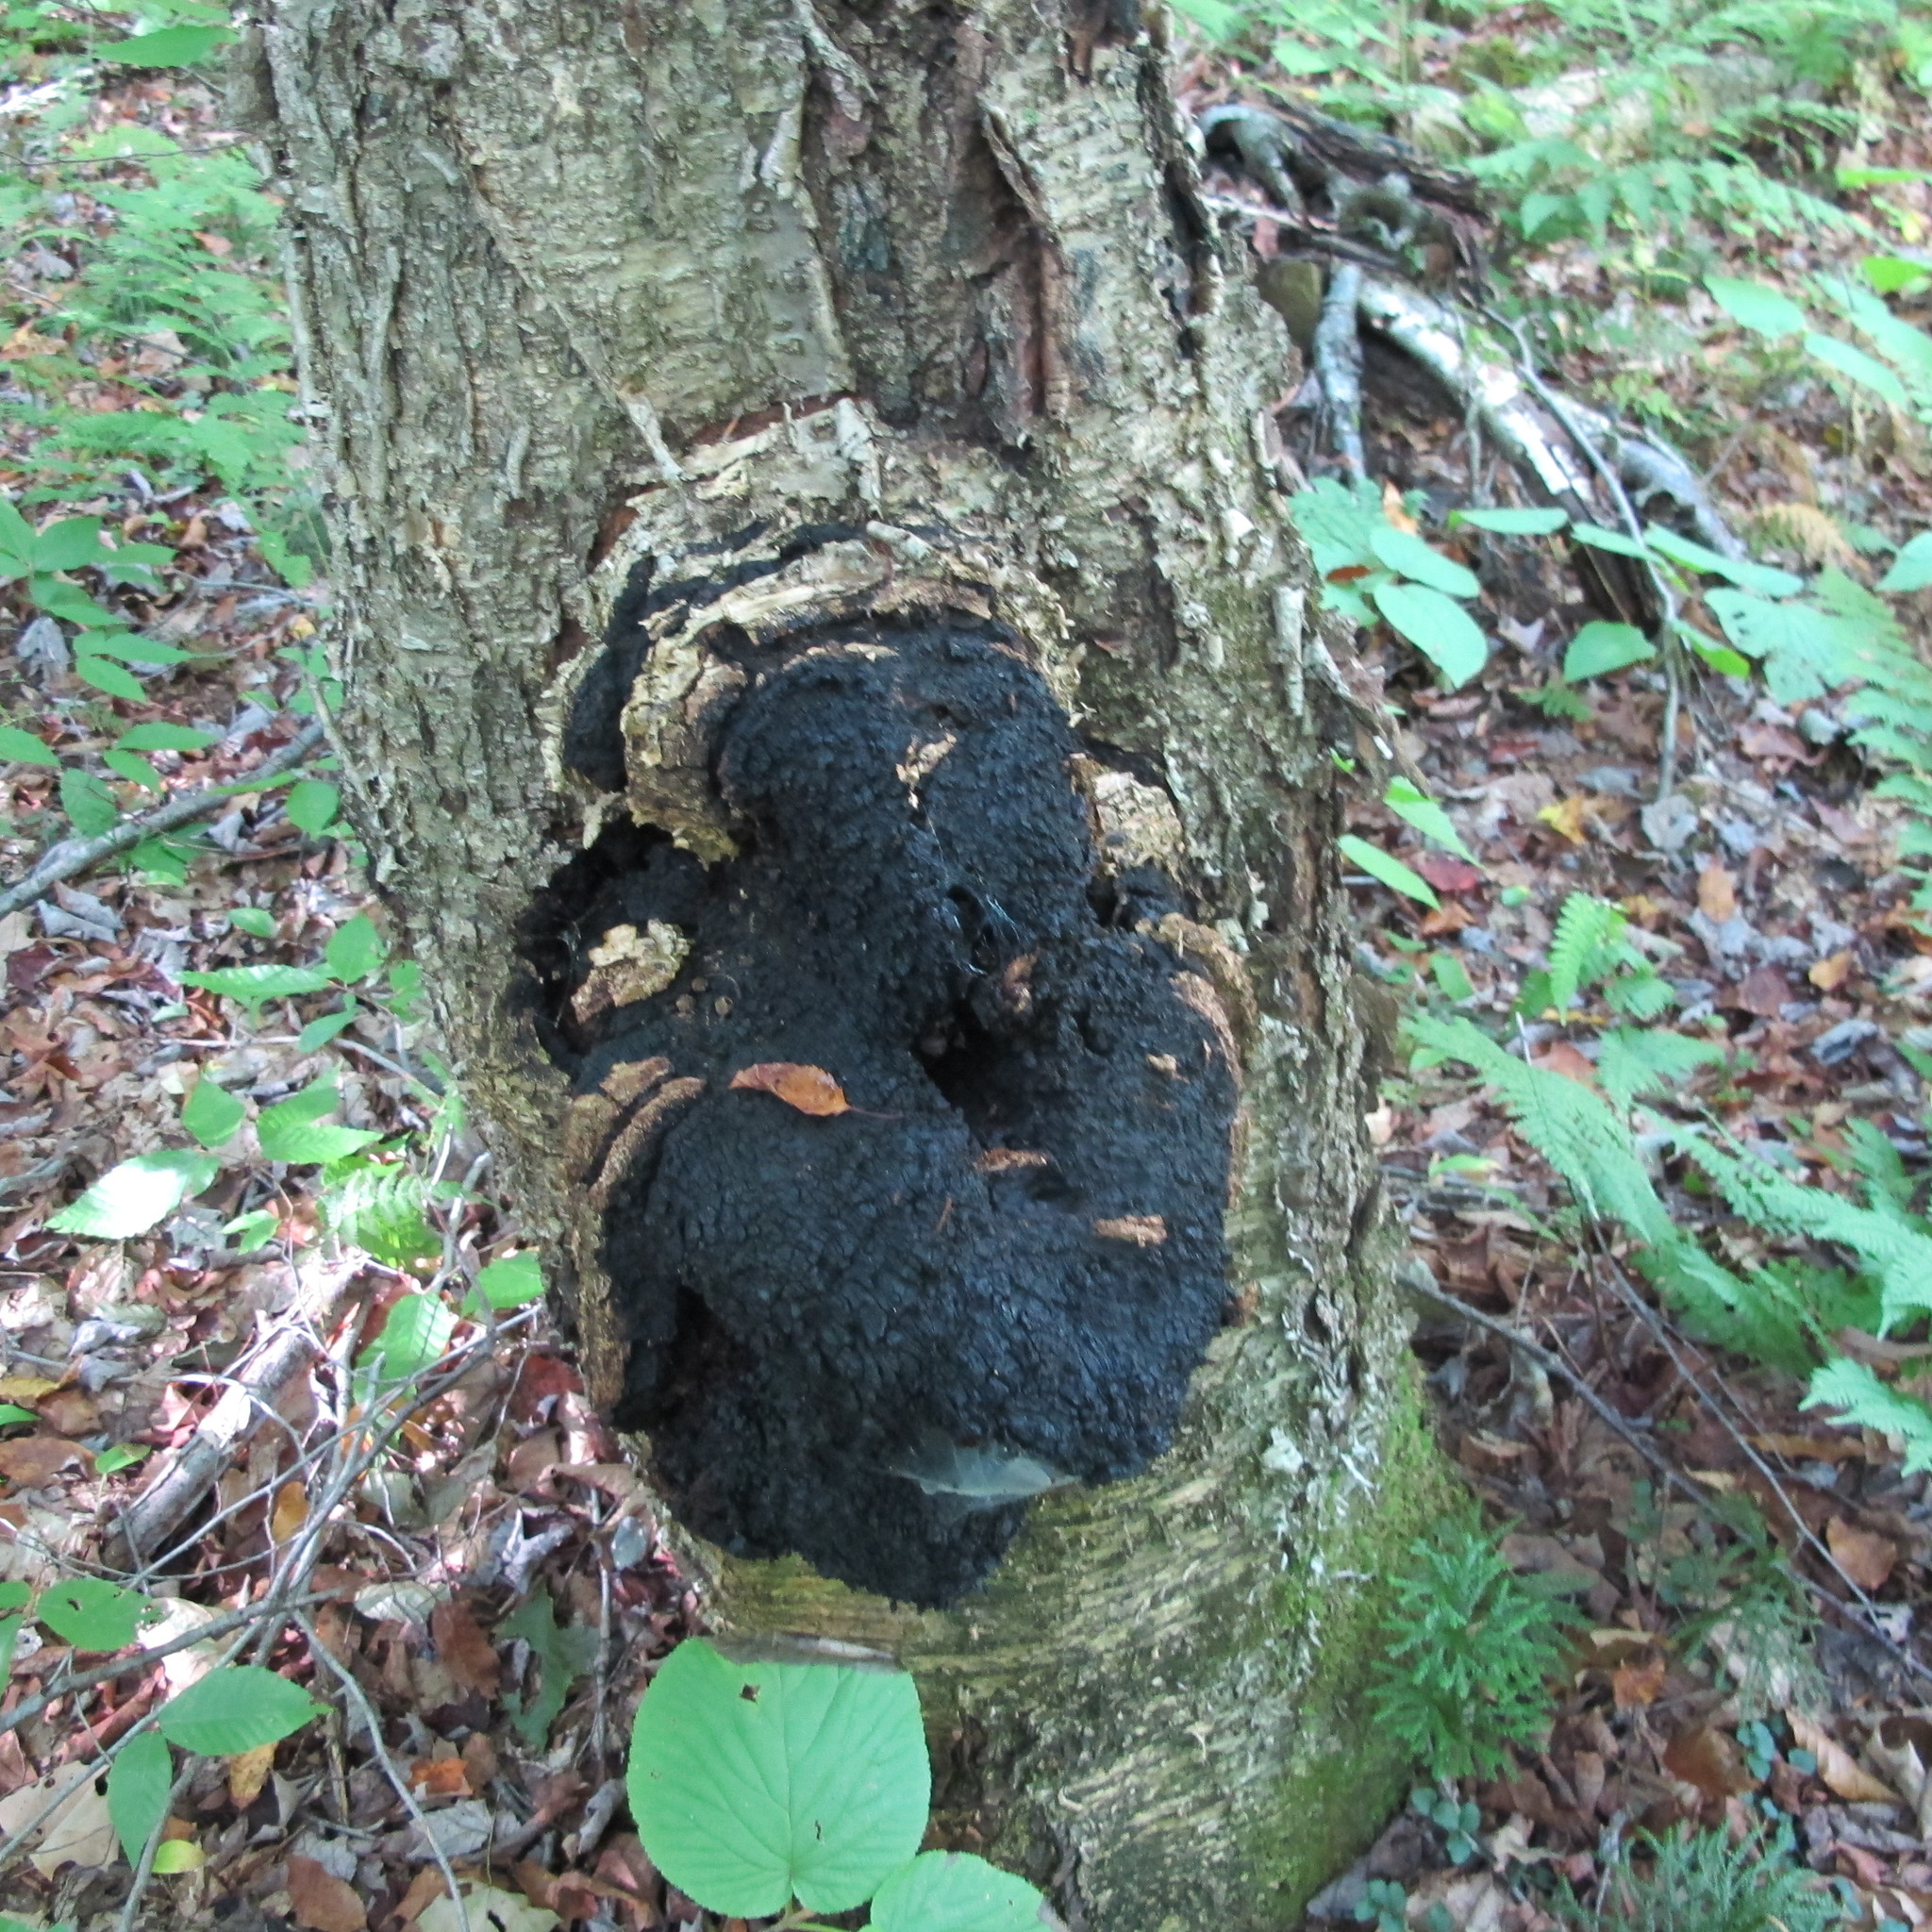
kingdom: Fungi
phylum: Basidiomycota
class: Agaricomycetes
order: Hymenochaetales
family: Hymenochaetaceae
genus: Inonotus
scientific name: Inonotus obliquus
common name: Chaga
